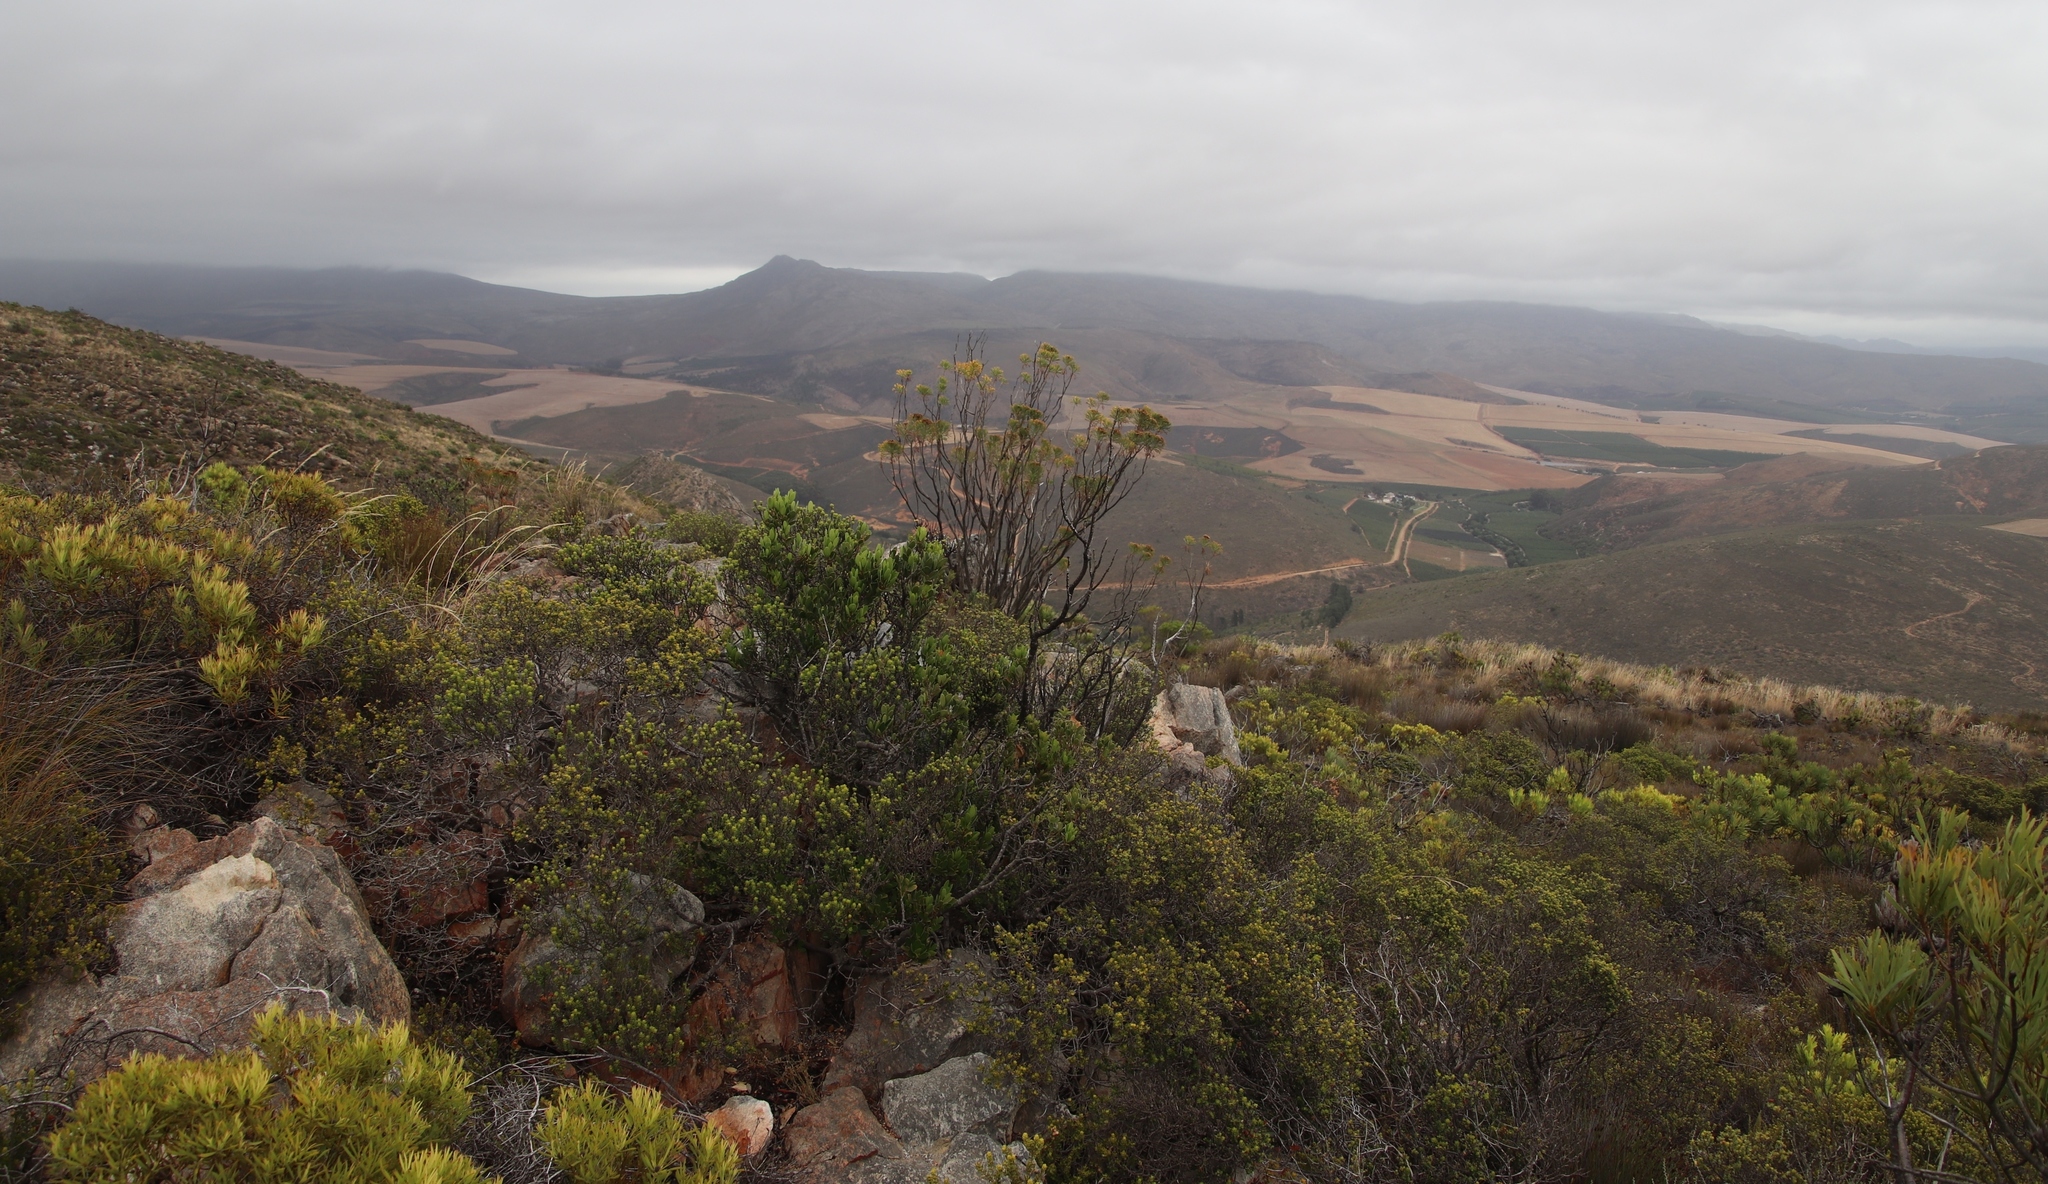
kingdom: Plantae
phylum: Tracheophyta
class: Magnoliopsida
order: Celastrales
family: Celastraceae
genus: Gymnosporia
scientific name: Gymnosporia laurina
